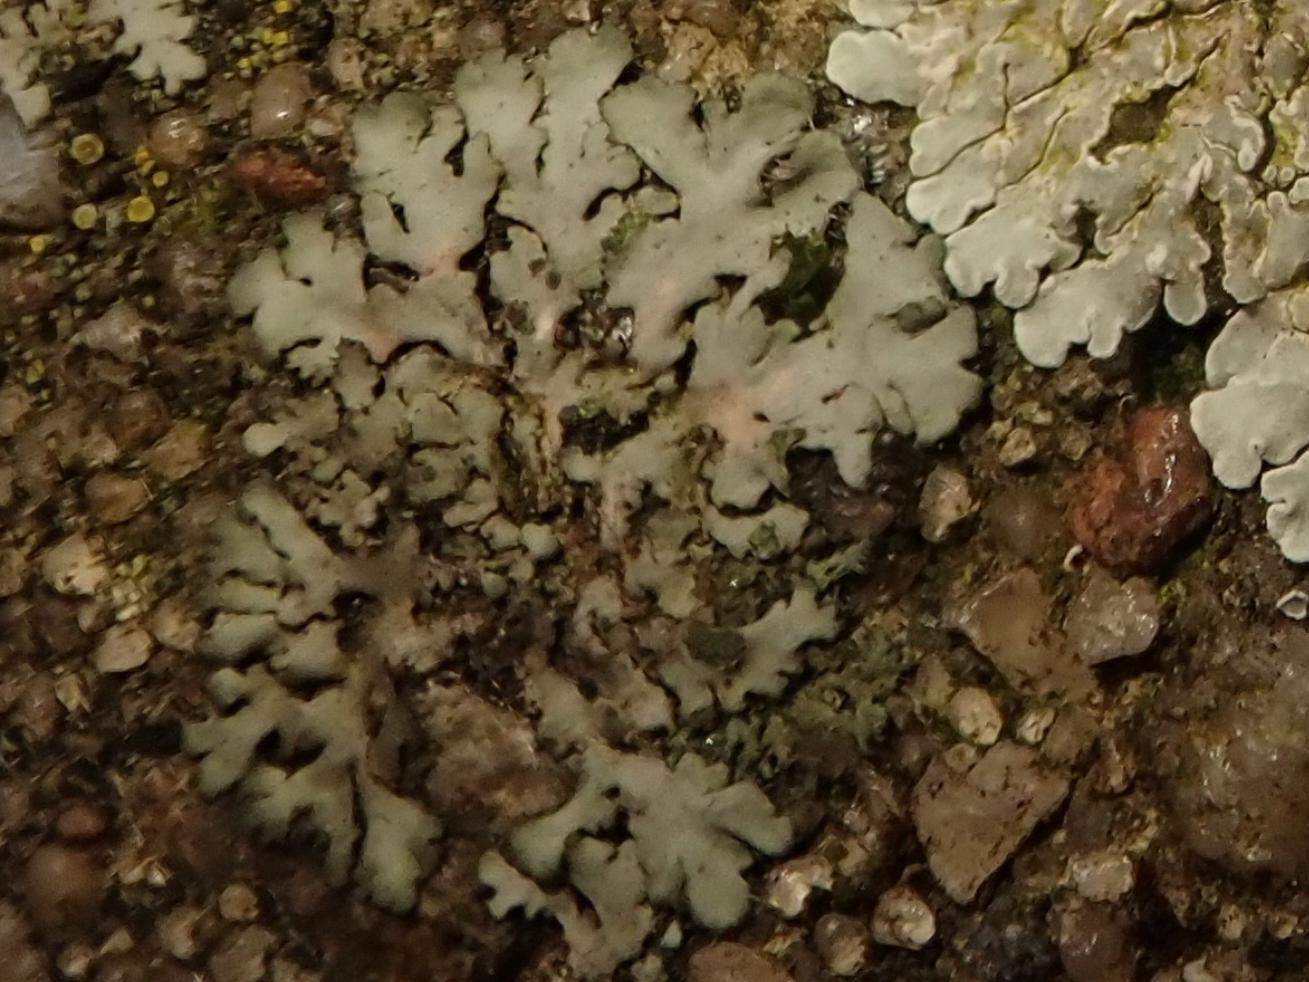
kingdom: Fungi
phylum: Ascomycota
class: Lecanoromycetes
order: Caliciales
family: Physciaceae
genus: Phaeophyscia
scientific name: Phaeophyscia orbicularis
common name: Mealy shadow lichen
